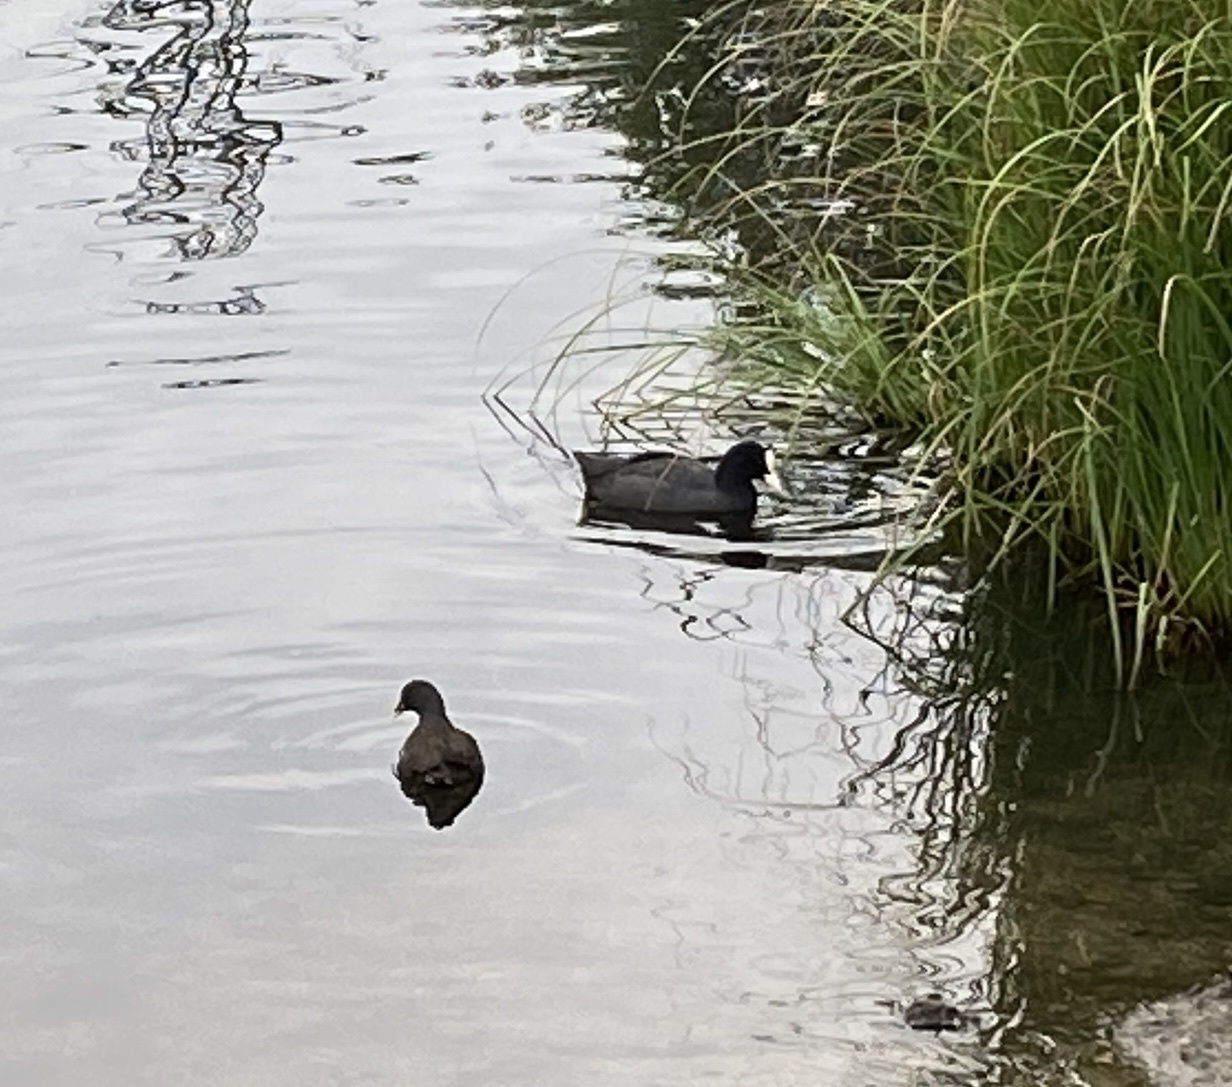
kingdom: Animalia
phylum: Chordata
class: Aves
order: Gruiformes
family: Rallidae
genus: Fulica
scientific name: Fulica atra
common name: Eurasian coot
